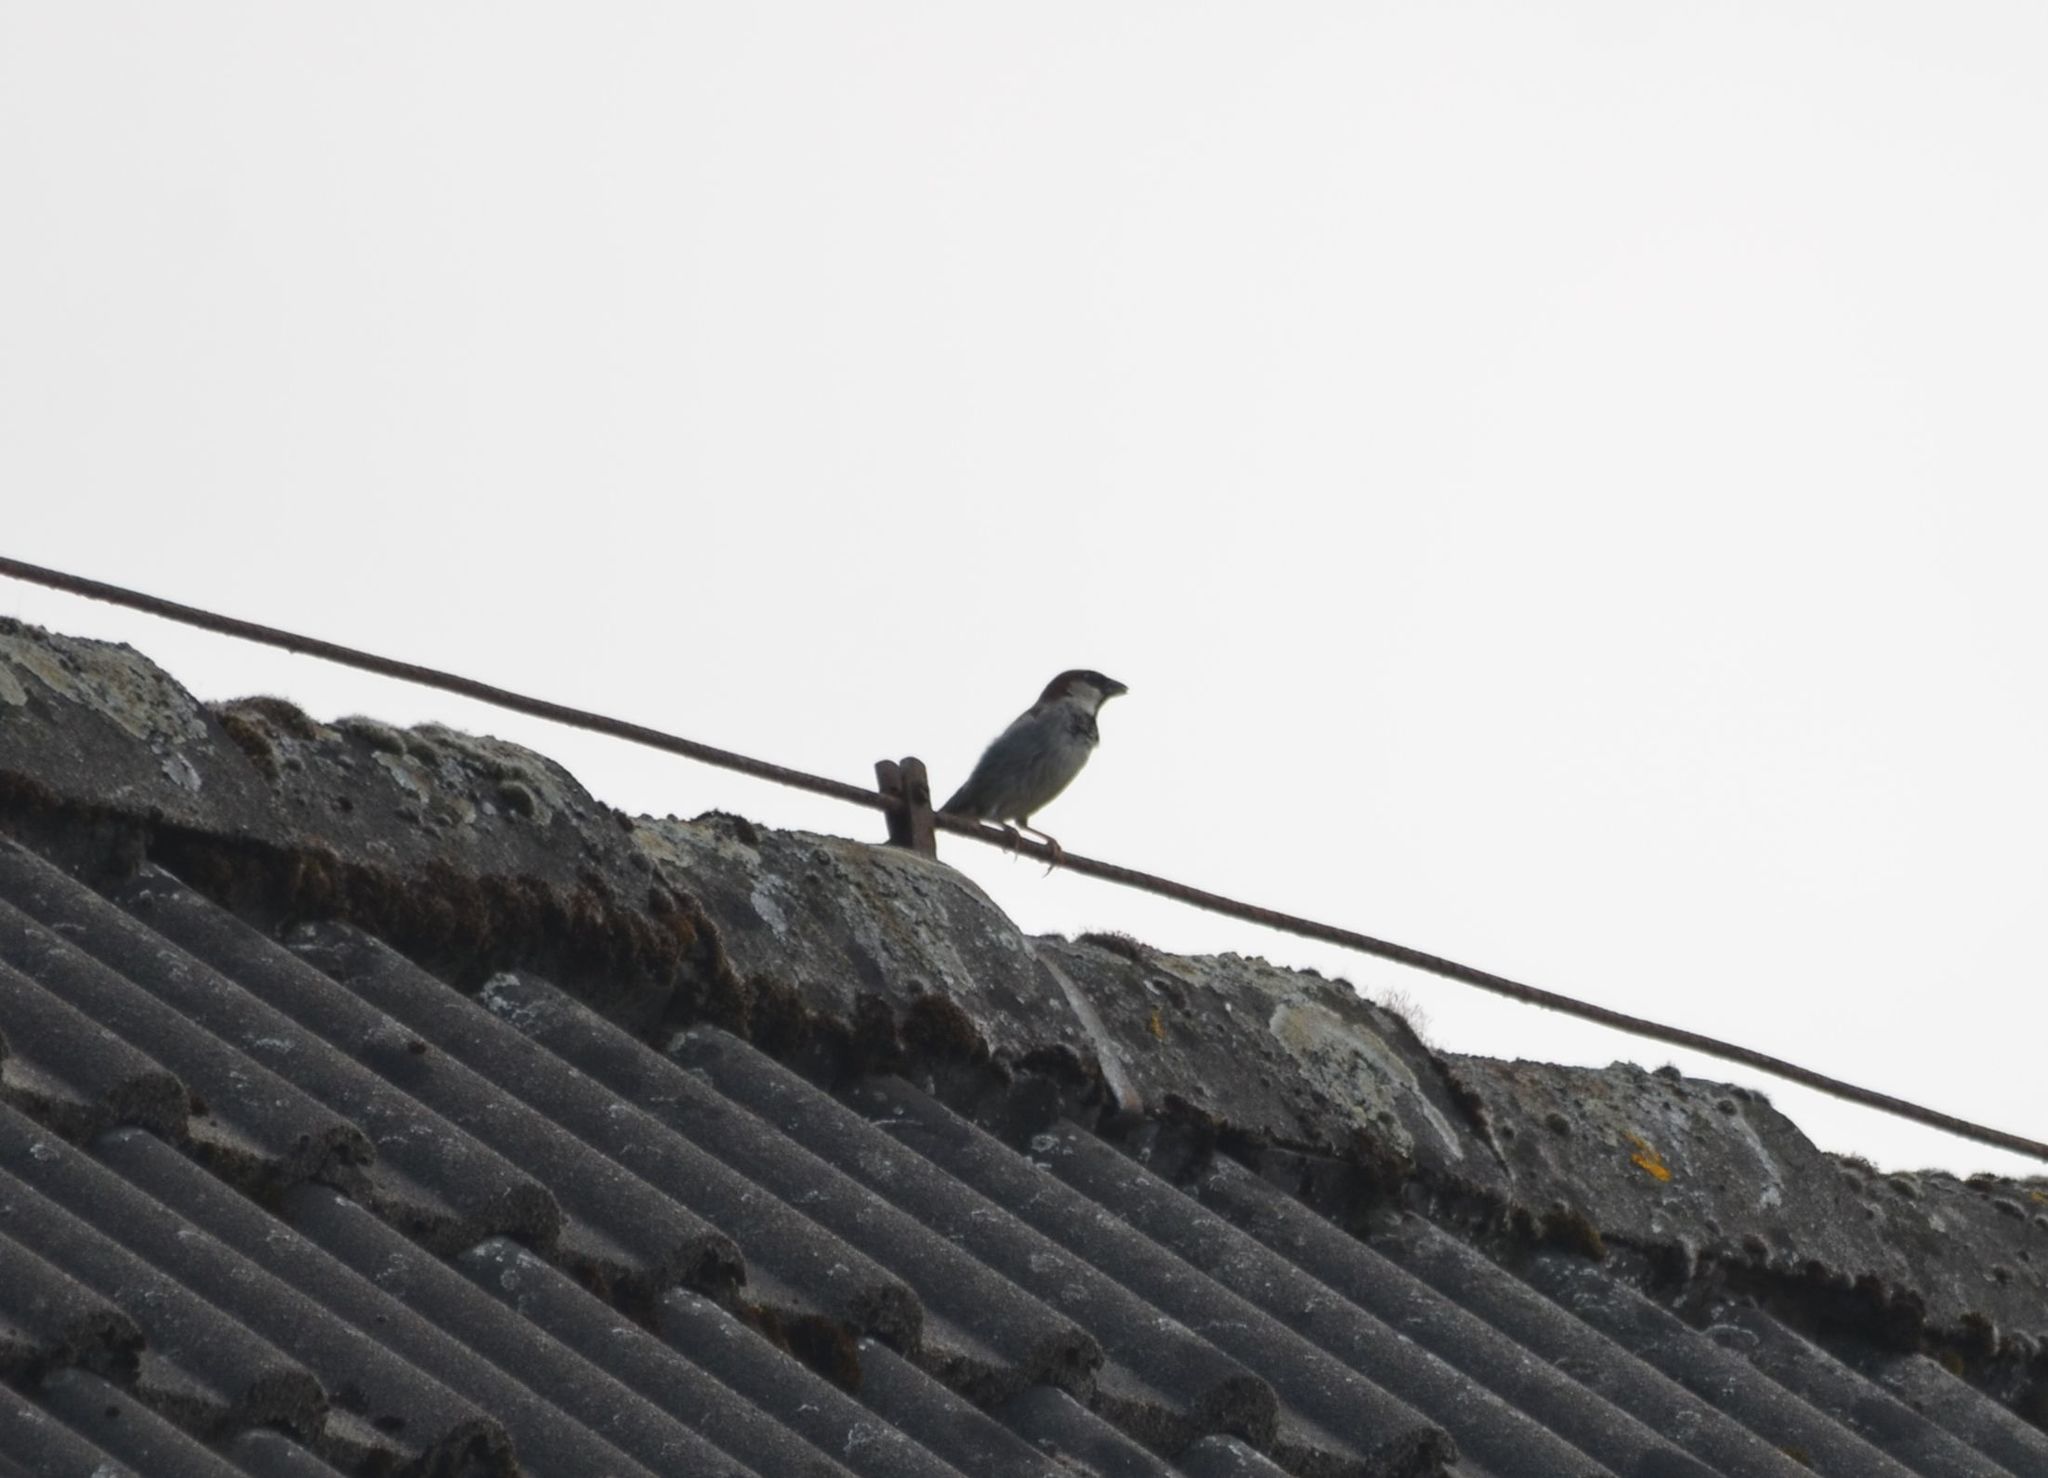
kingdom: Animalia
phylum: Chordata
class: Aves
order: Passeriformes
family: Passeridae
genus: Passer
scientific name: Passer domesticus
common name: House sparrow
